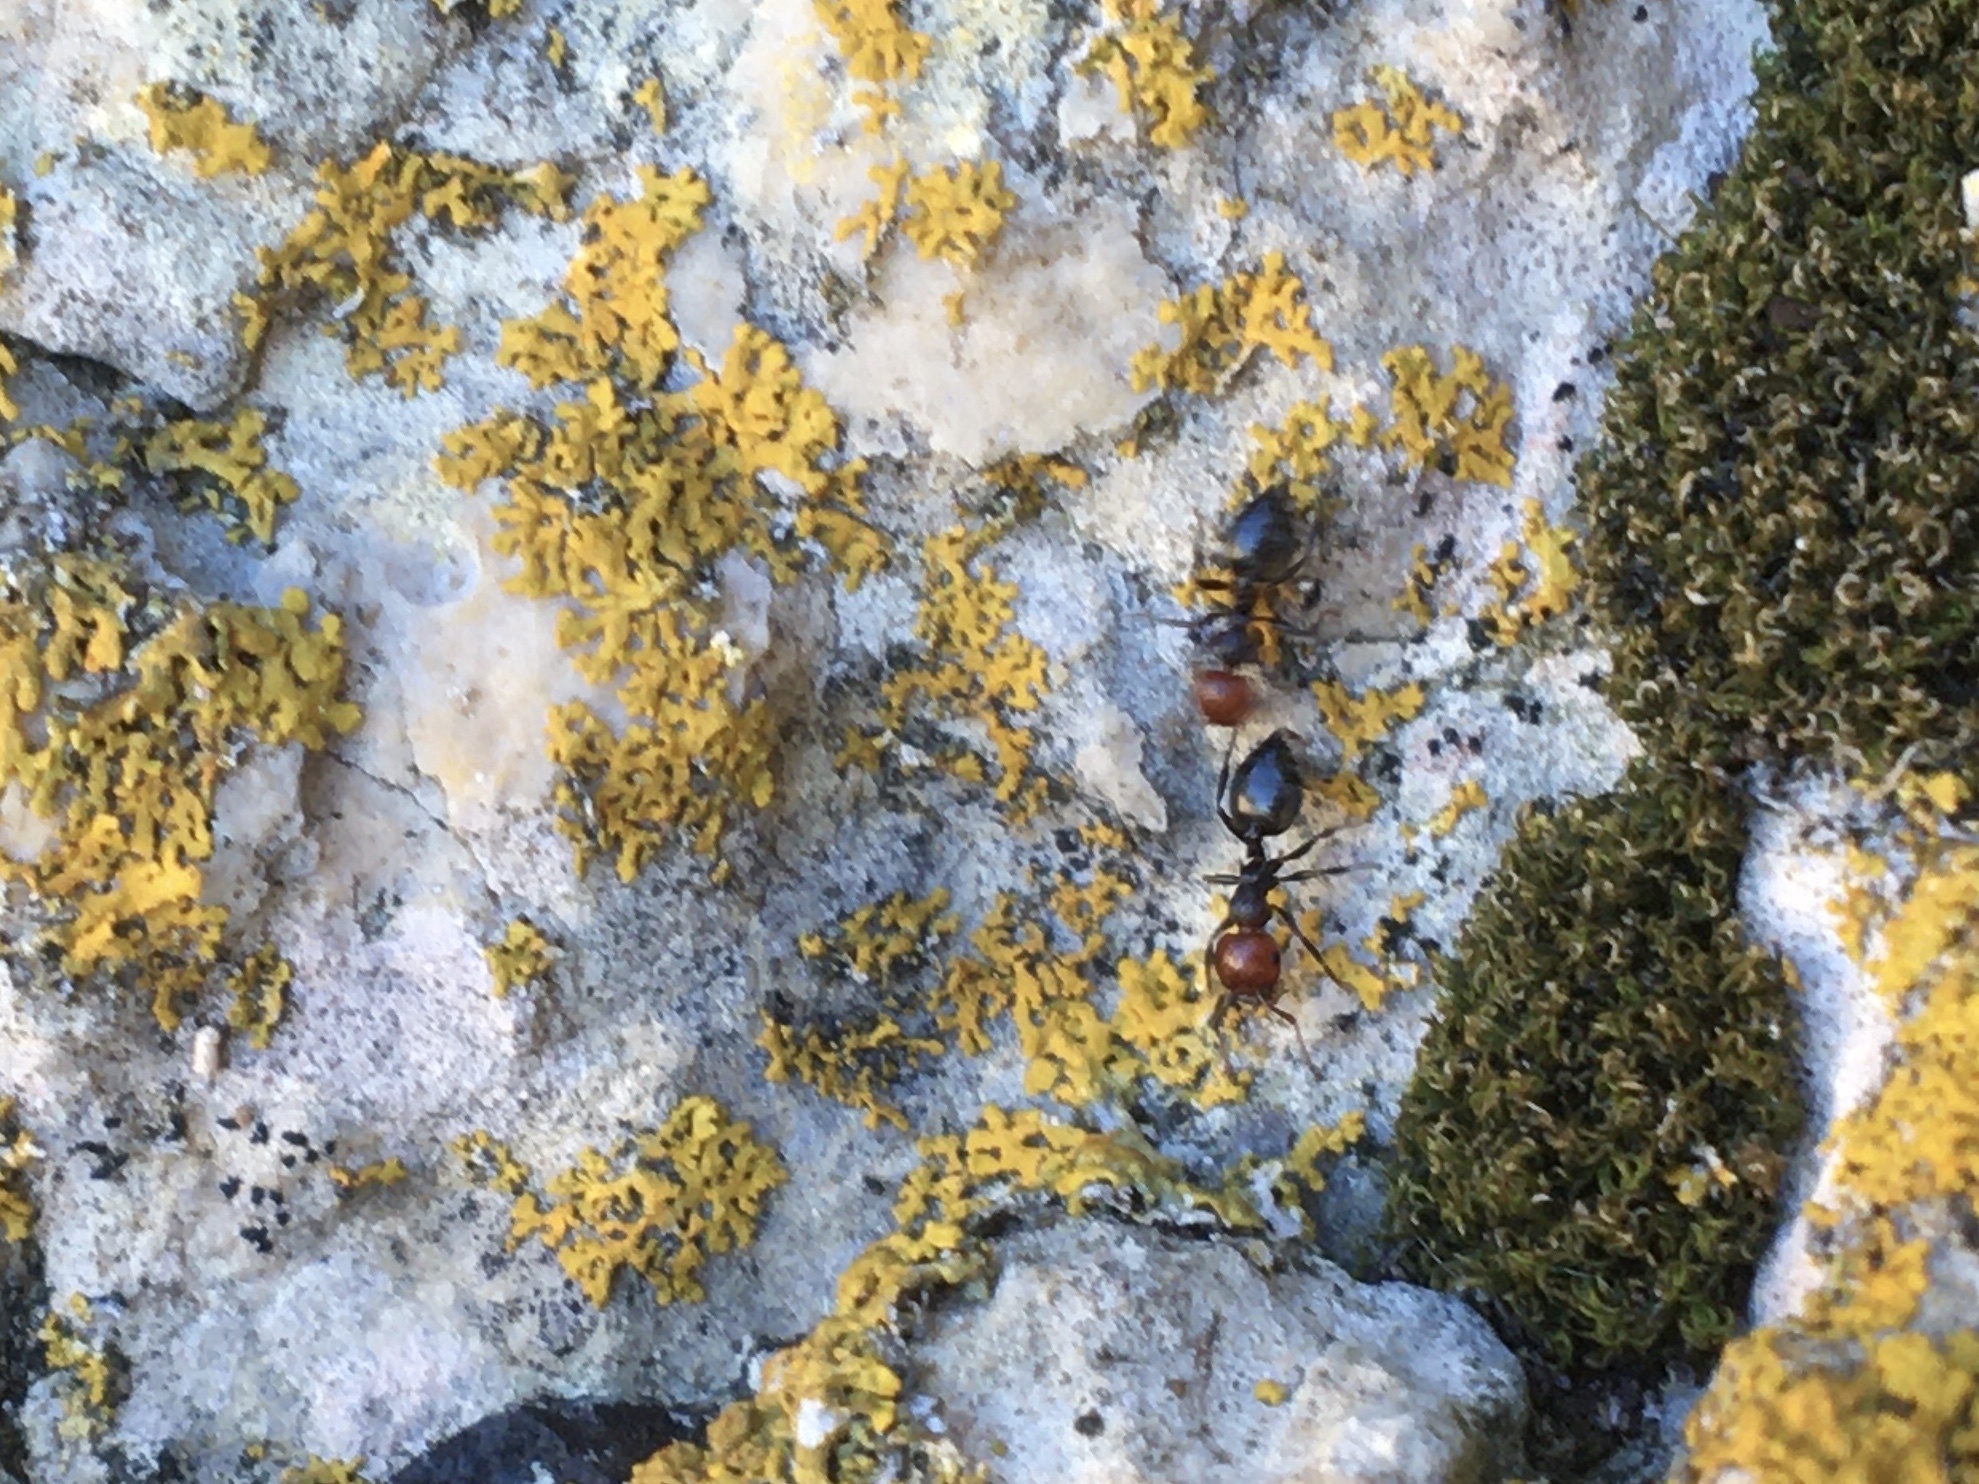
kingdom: Animalia
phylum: Arthropoda
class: Insecta
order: Hymenoptera
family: Formicidae
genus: Crematogaster
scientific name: Crematogaster scutellaris
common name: Fourmi du liège
